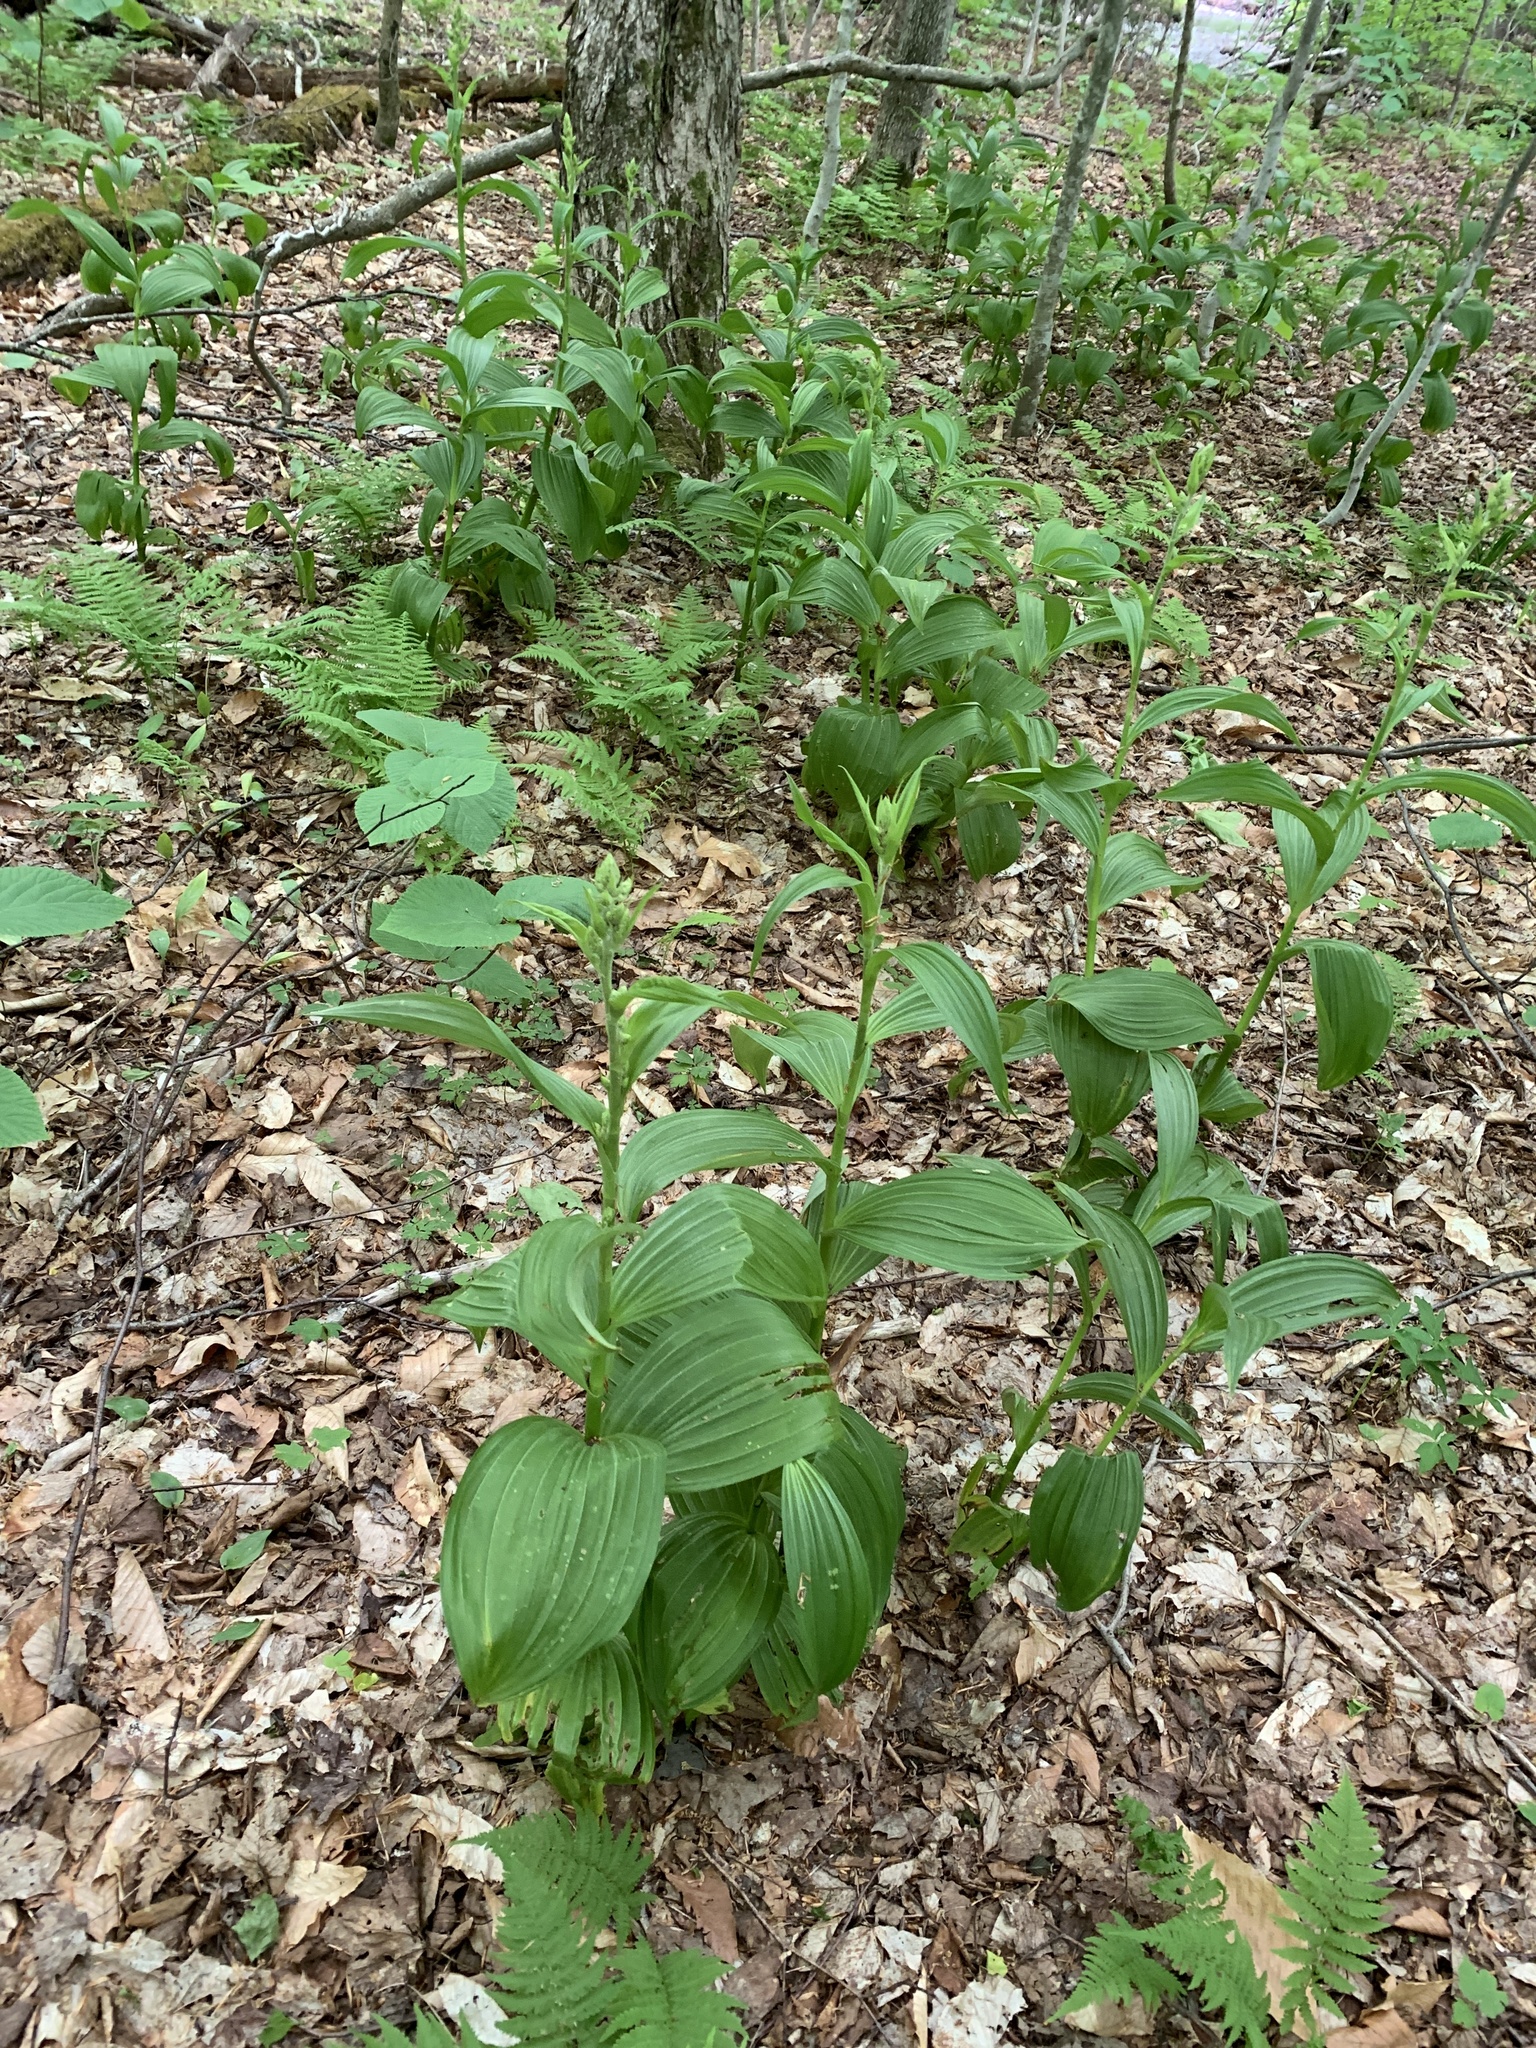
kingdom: Plantae
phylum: Tracheophyta
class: Liliopsida
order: Liliales
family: Melanthiaceae
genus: Veratrum
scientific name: Veratrum viride
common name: American false hellebore
